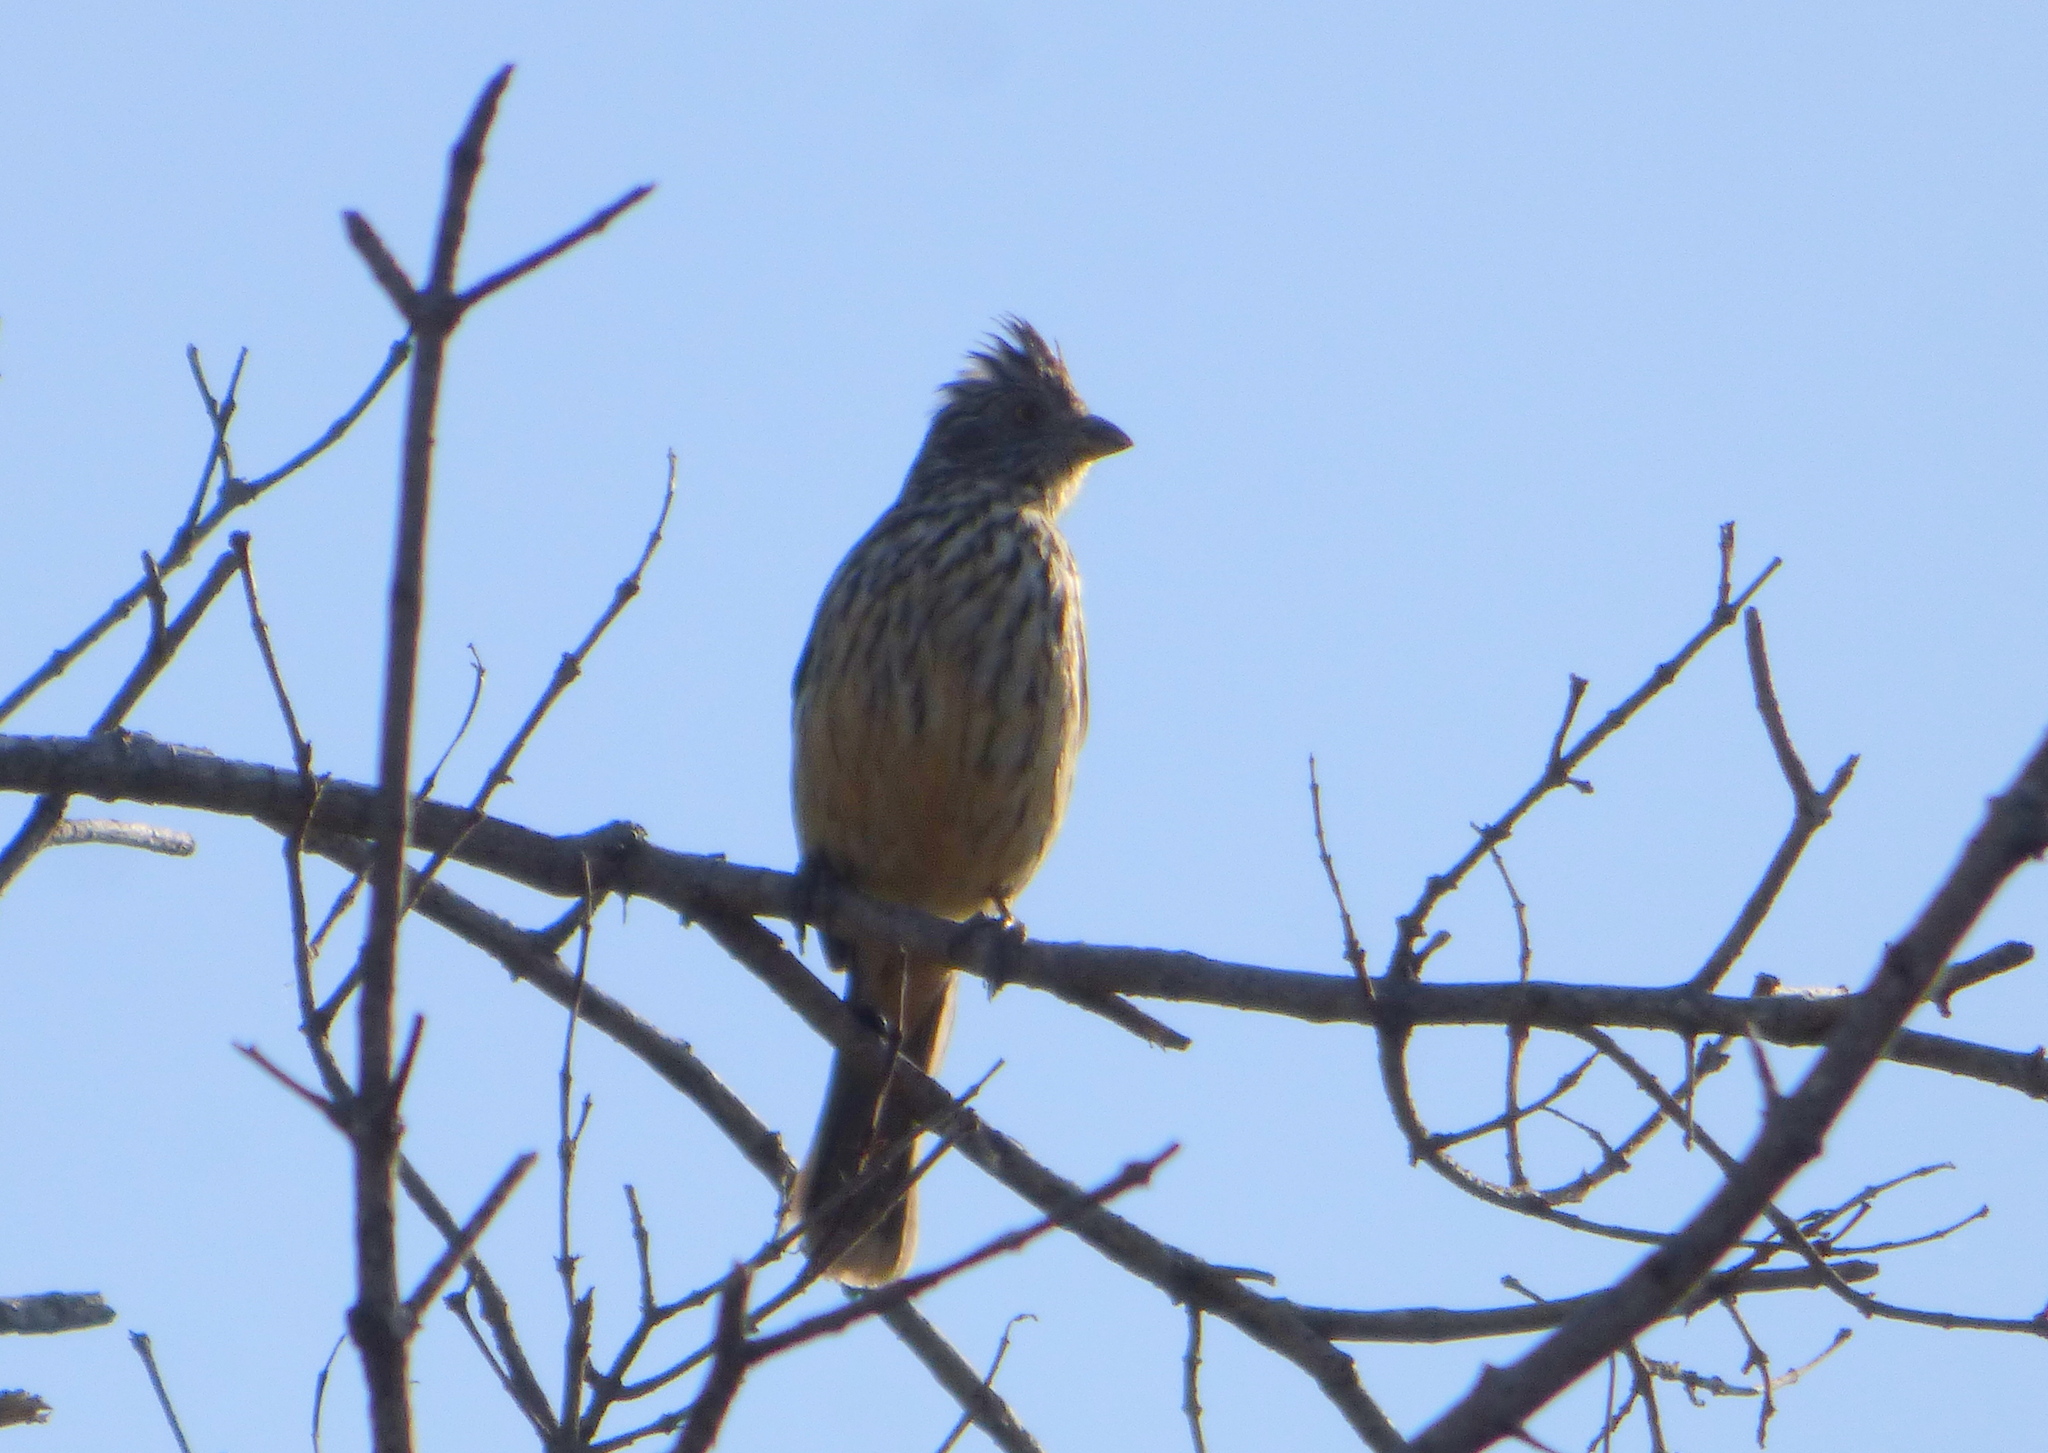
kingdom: Animalia
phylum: Chordata
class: Aves
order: Passeriformes
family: Cotingidae
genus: Phytotoma
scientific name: Phytotoma rutila
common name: White-tipped plantcutter
